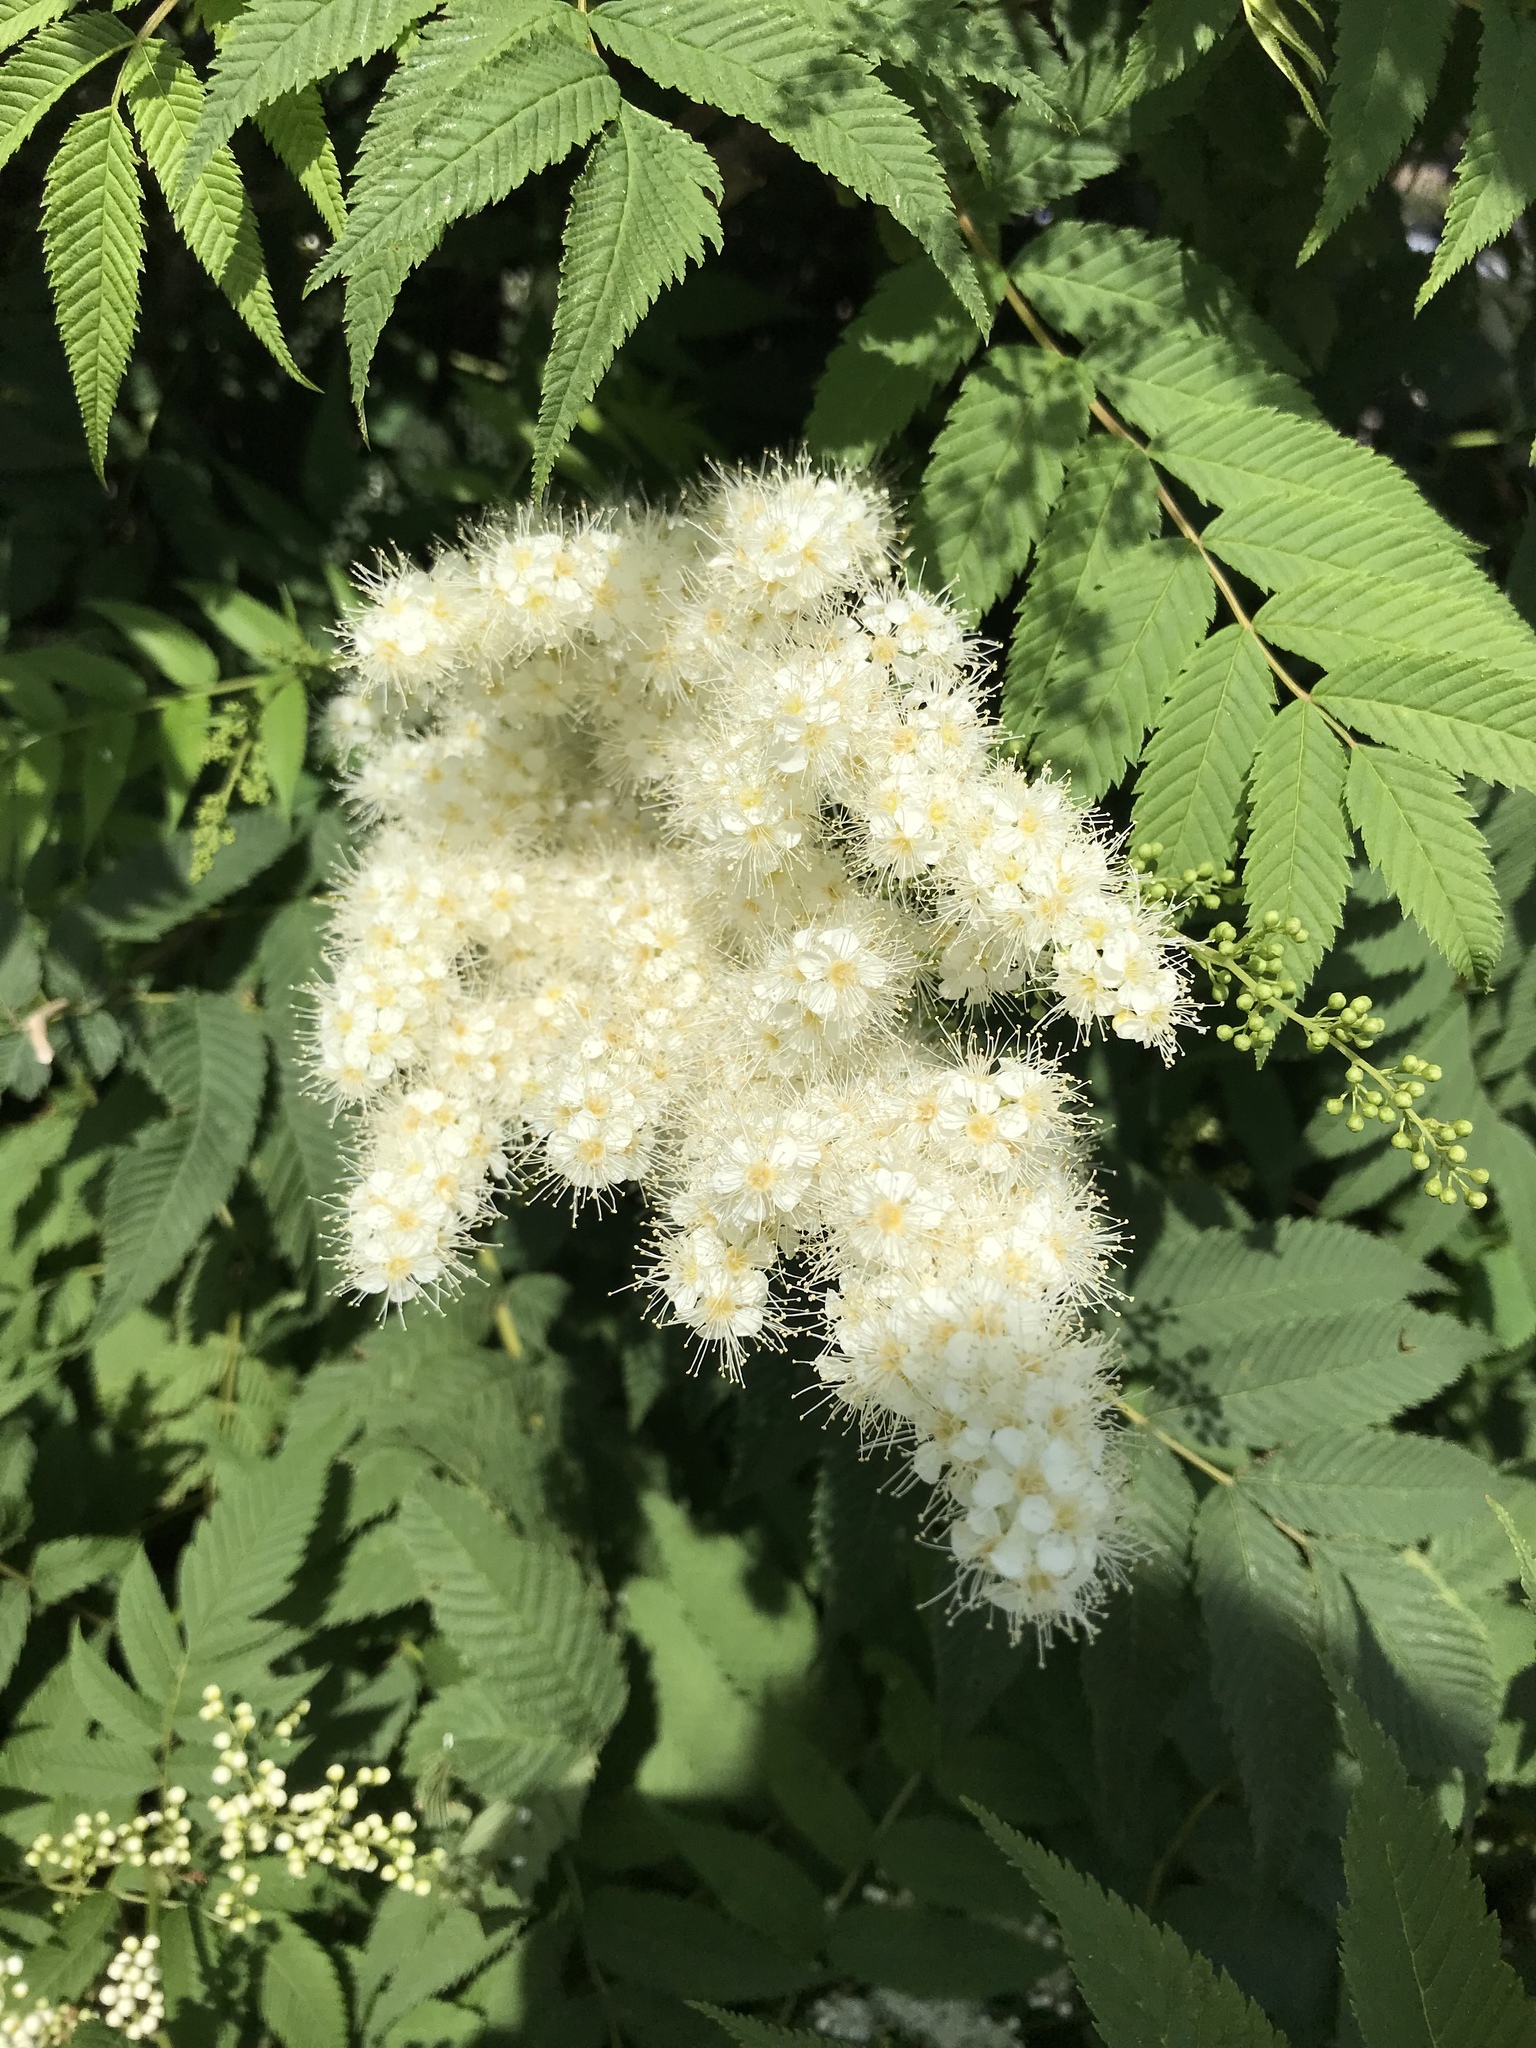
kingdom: Plantae
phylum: Tracheophyta
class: Magnoliopsida
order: Rosales
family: Rosaceae
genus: Sorbaria
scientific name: Sorbaria sorbifolia
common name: False spiraea
